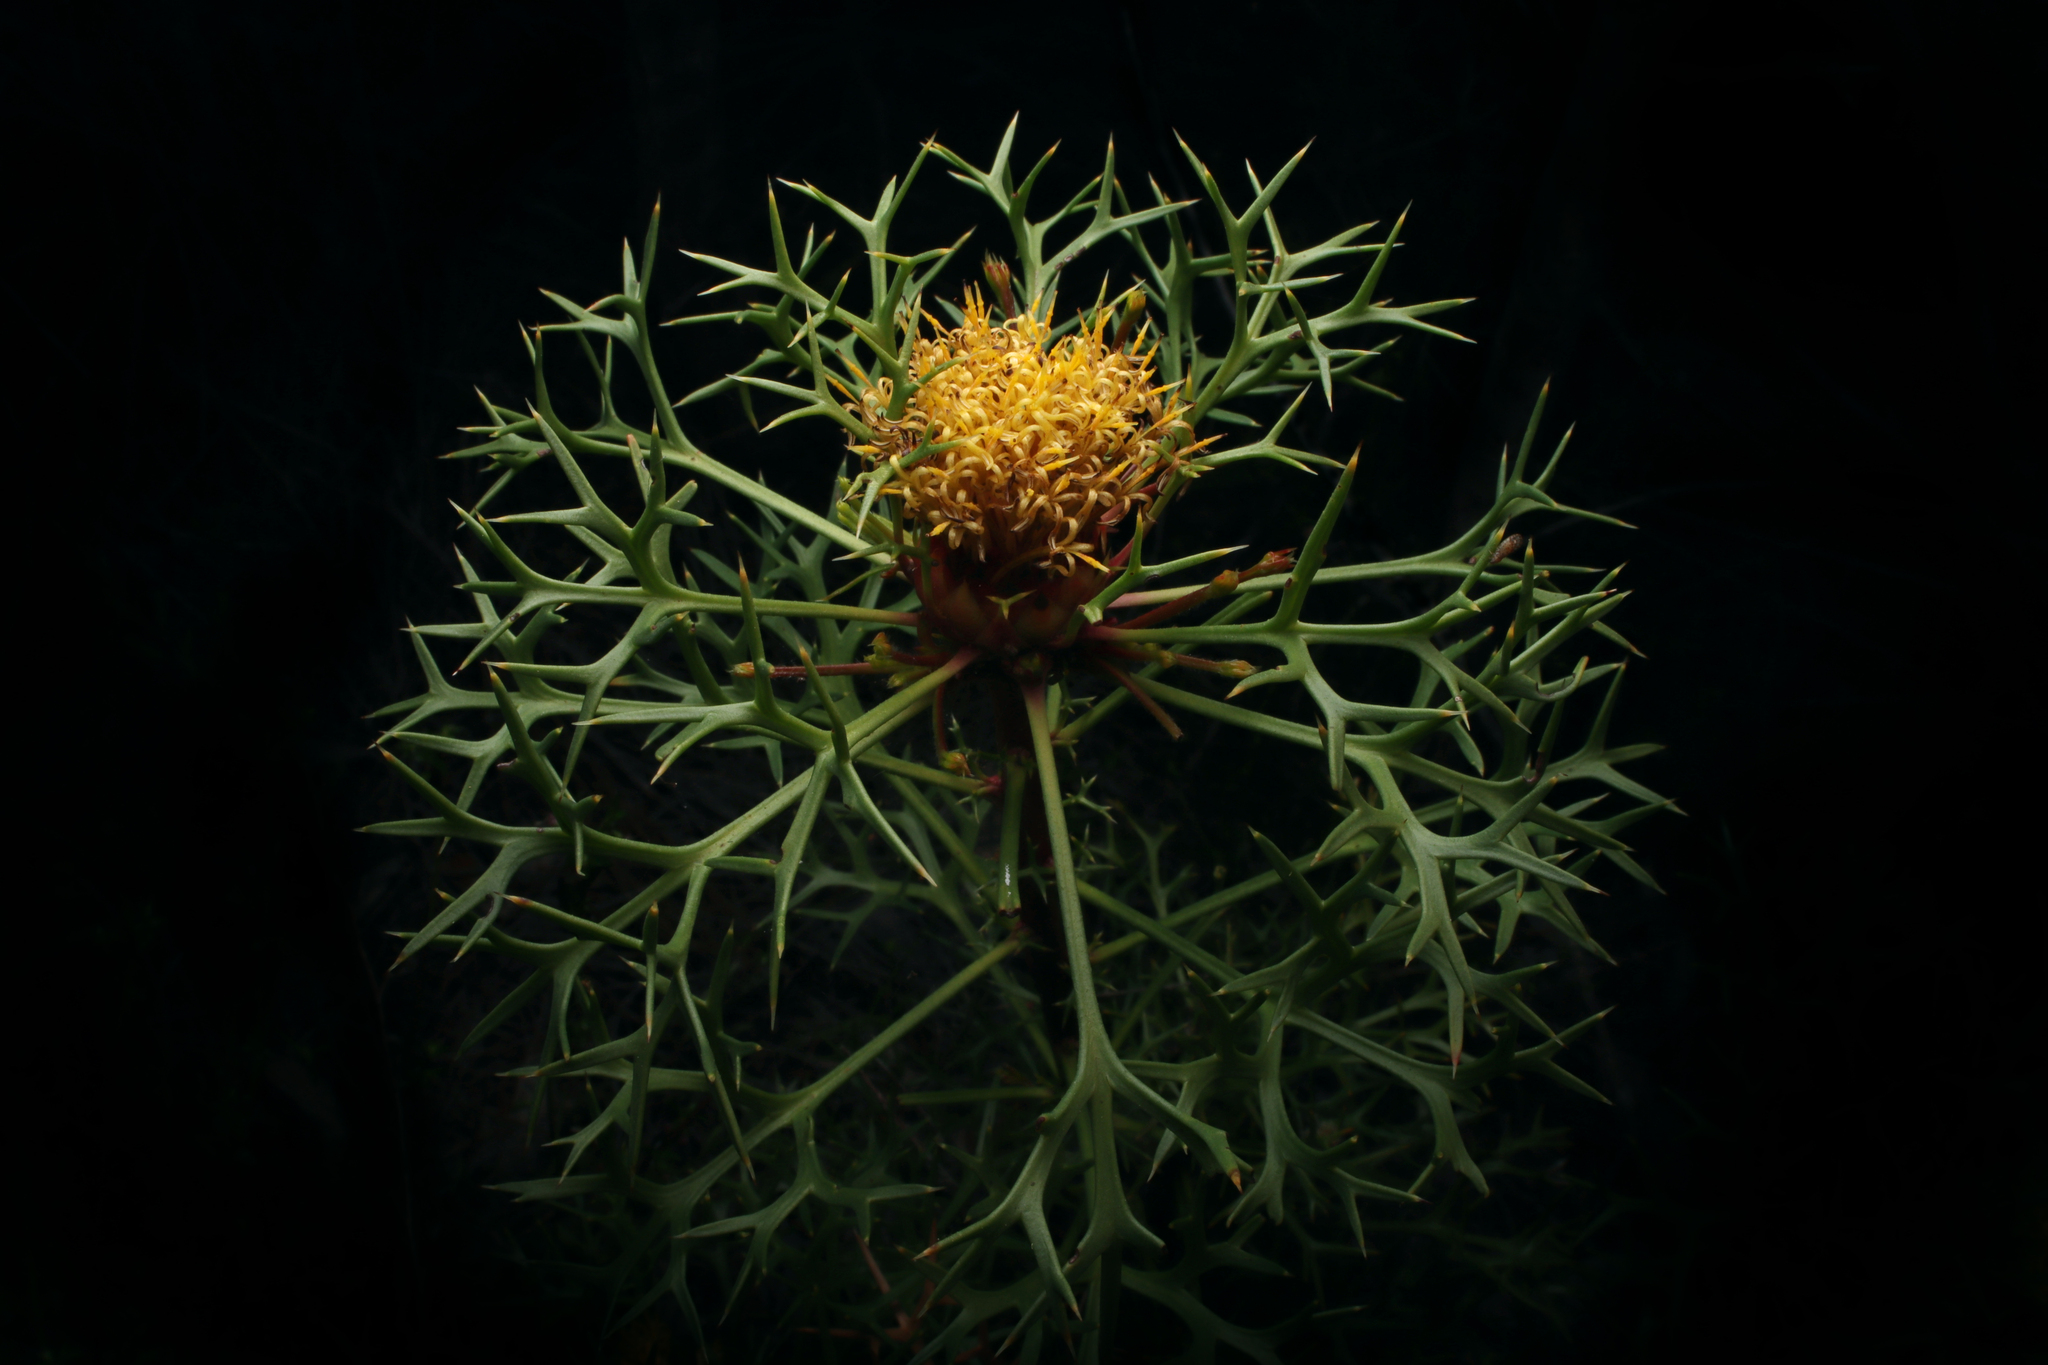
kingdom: Plantae
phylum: Tracheophyta
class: Magnoliopsida
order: Proteales
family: Proteaceae
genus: Isopogon
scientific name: Isopogon ceratophyllus
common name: Horny cone-bush
